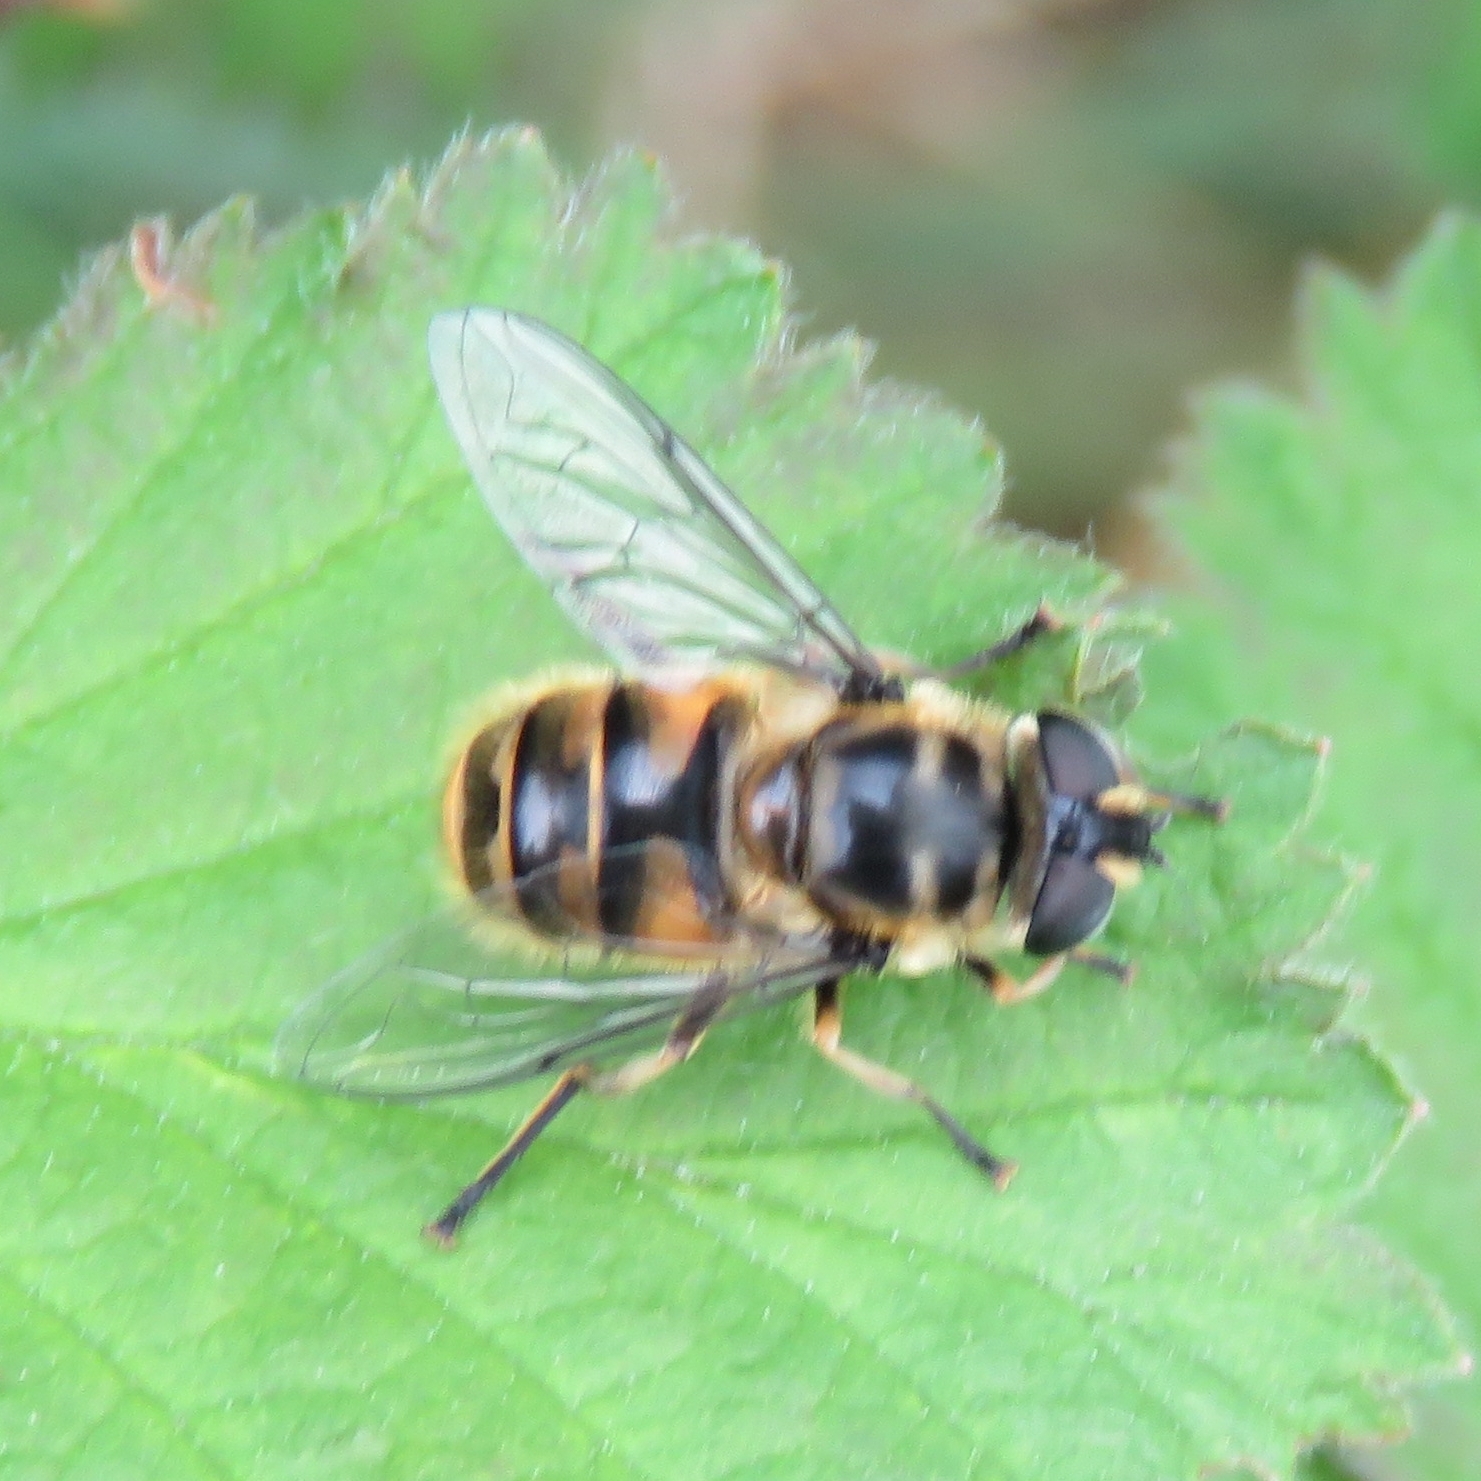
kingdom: Animalia
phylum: Arthropoda
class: Insecta
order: Diptera
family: Syrphidae
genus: Myathropa
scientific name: Myathropa florea
